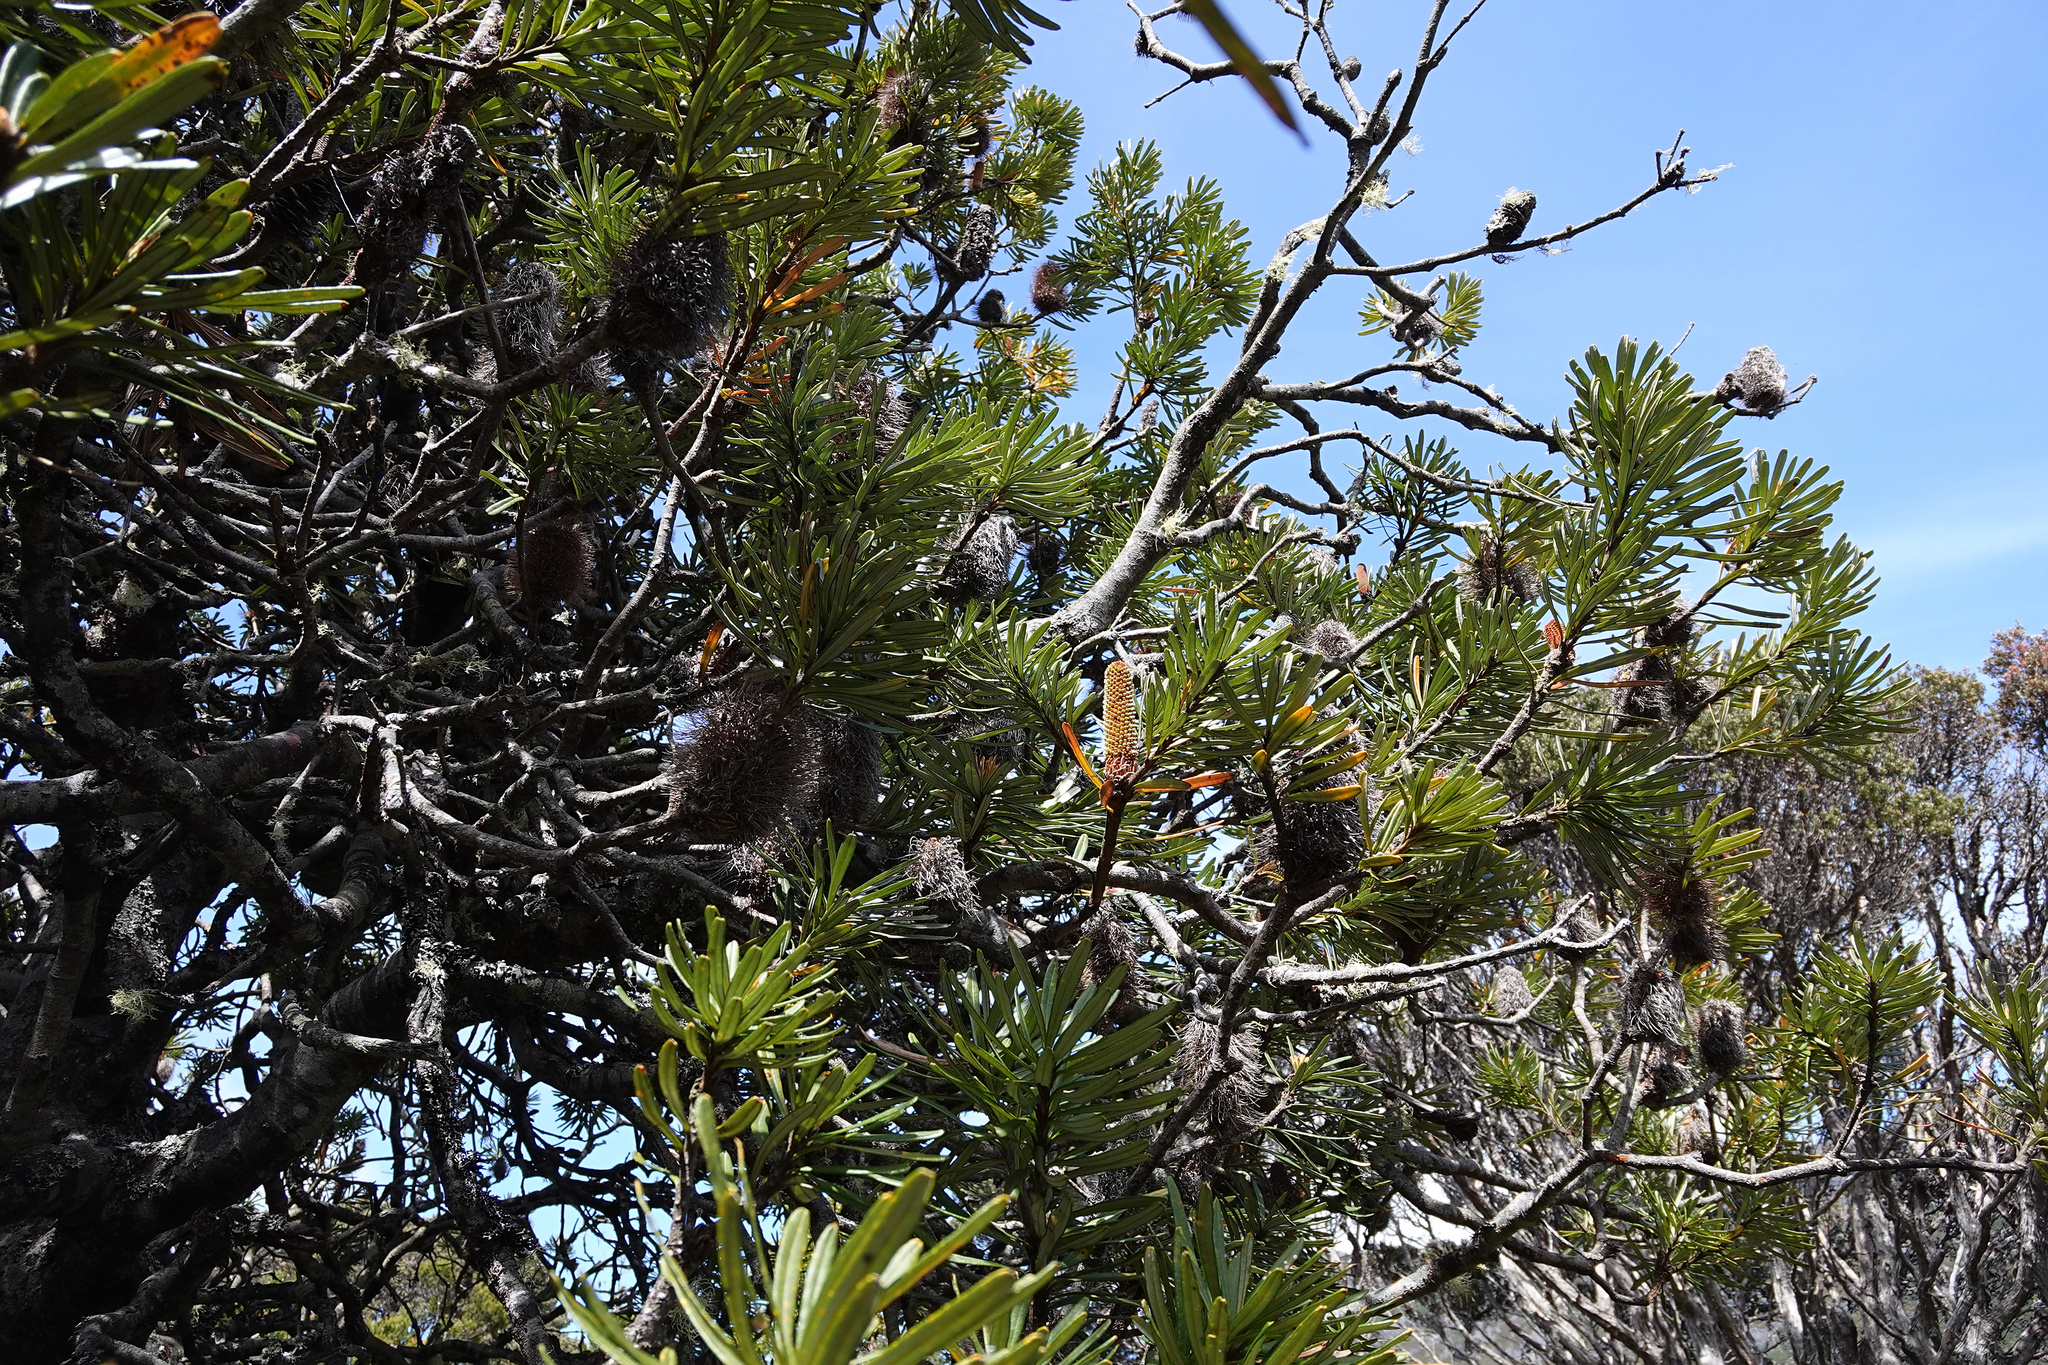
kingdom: Plantae
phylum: Tracheophyta
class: Magnoliopsida
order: Proteales
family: Proteaceae
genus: Banksia
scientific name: Banksia marginata
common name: Silver banksia
